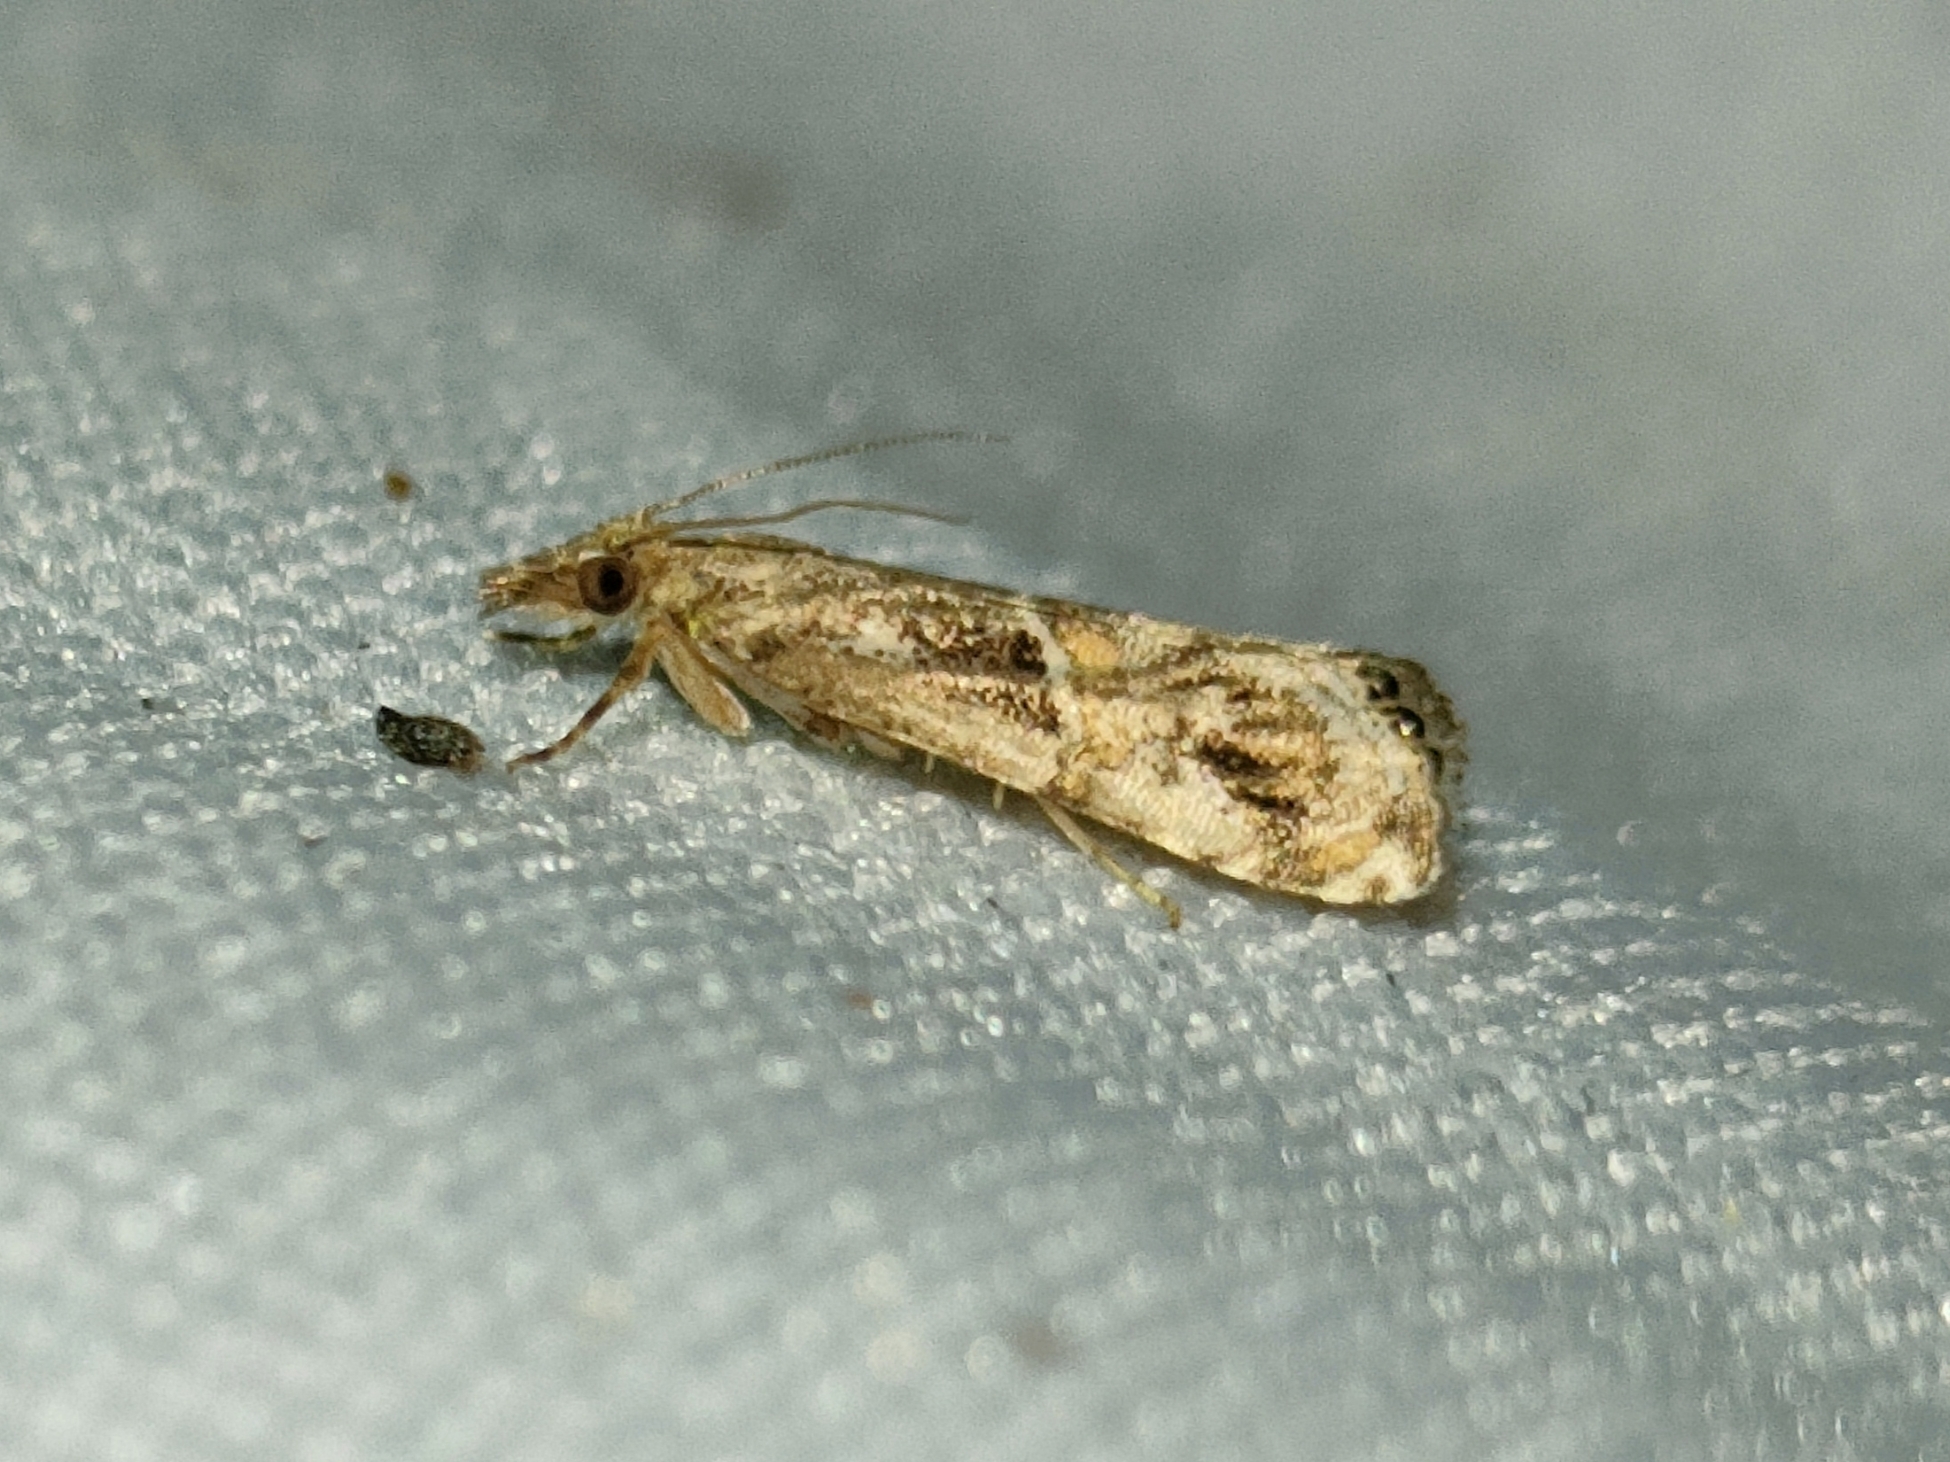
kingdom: Animalia
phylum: Arthropoda
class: Insecta
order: Lepidoptera
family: Crambidae
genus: Euchromius
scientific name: Euchromius cambridgei
